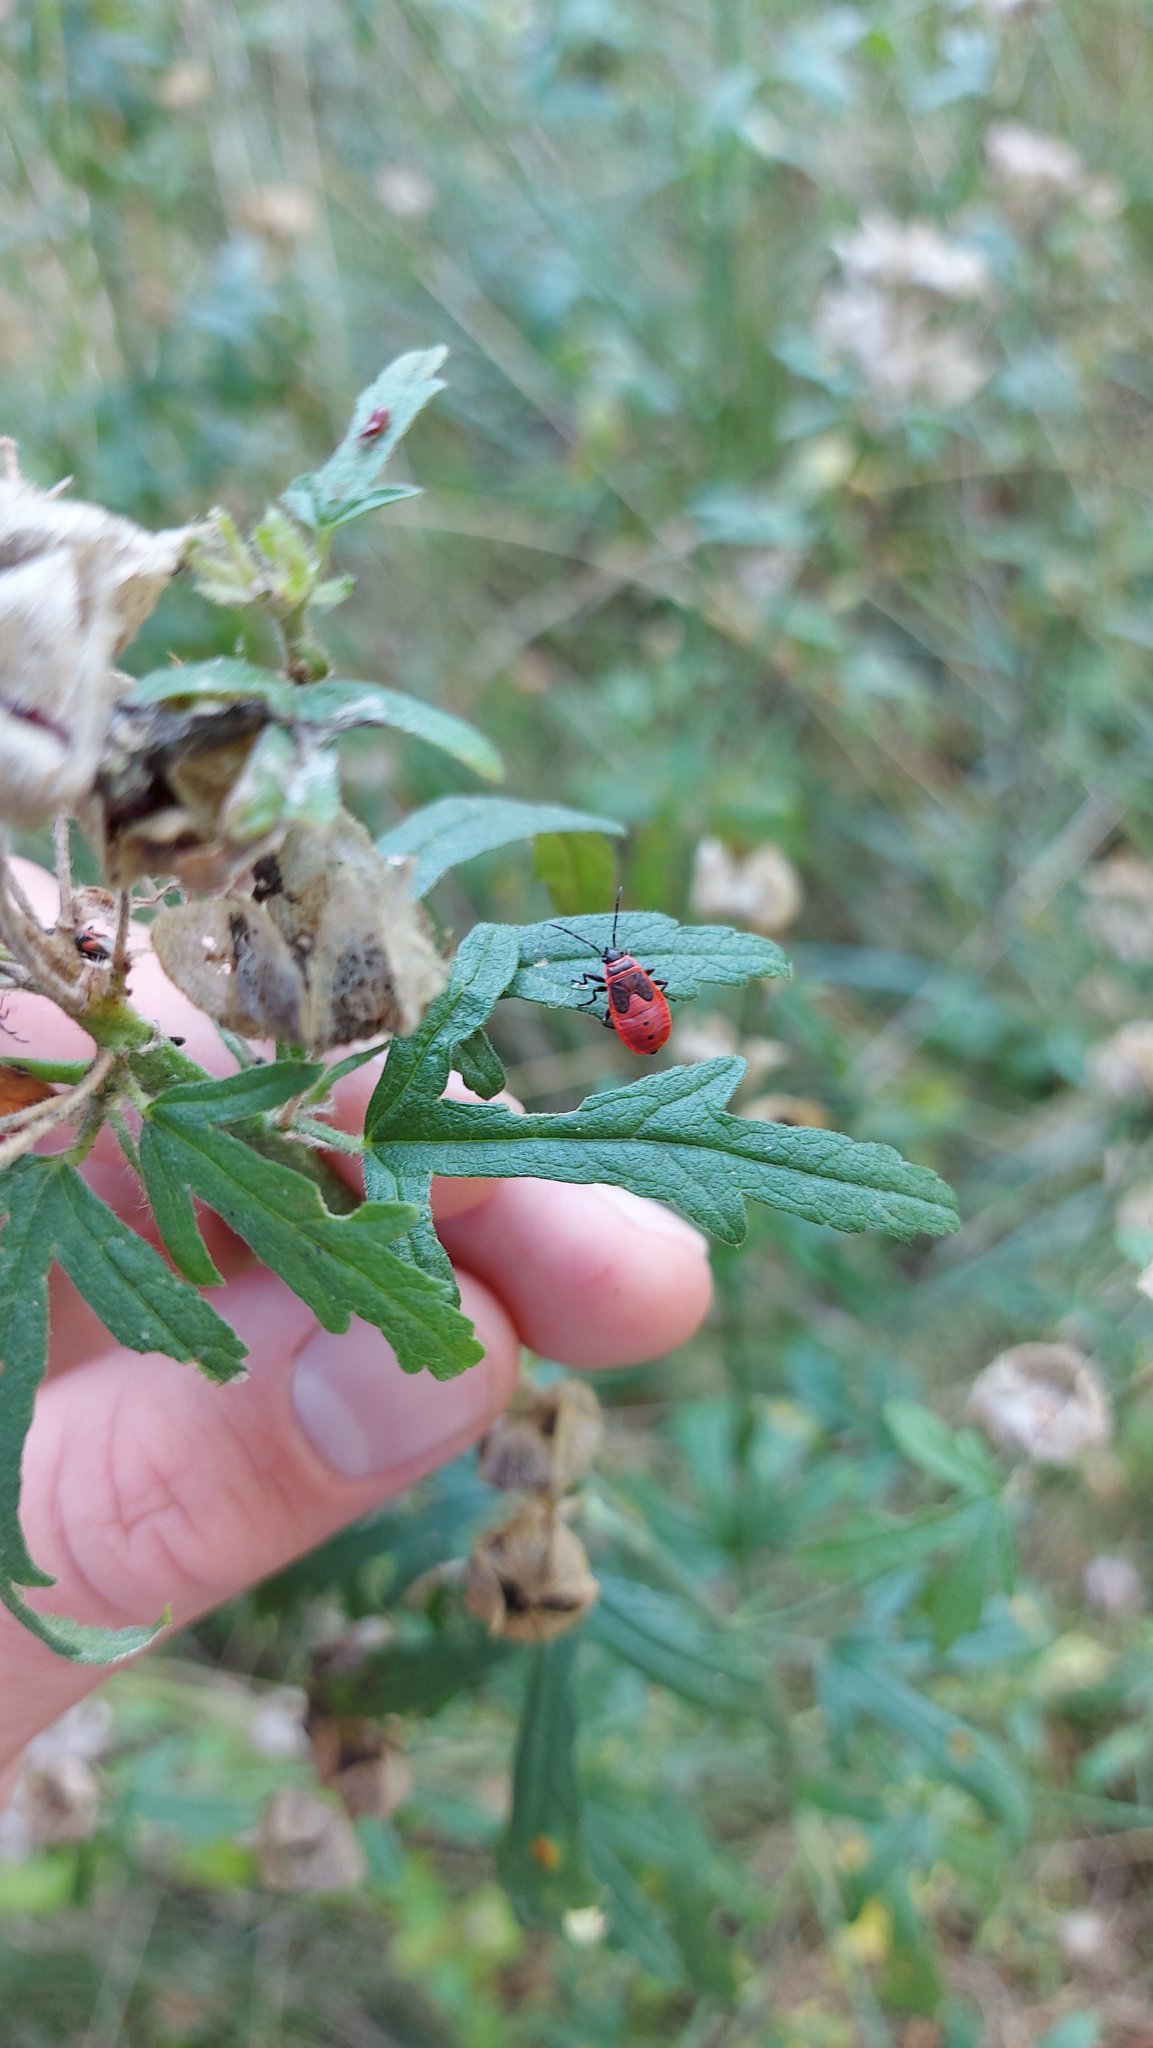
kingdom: Animalia
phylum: Arthropoda
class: Insecta
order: Hemiptera
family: Pyrrhocoridae
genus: Pyrrhocoris
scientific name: Pyrrhocoris apterus
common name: Firebug
